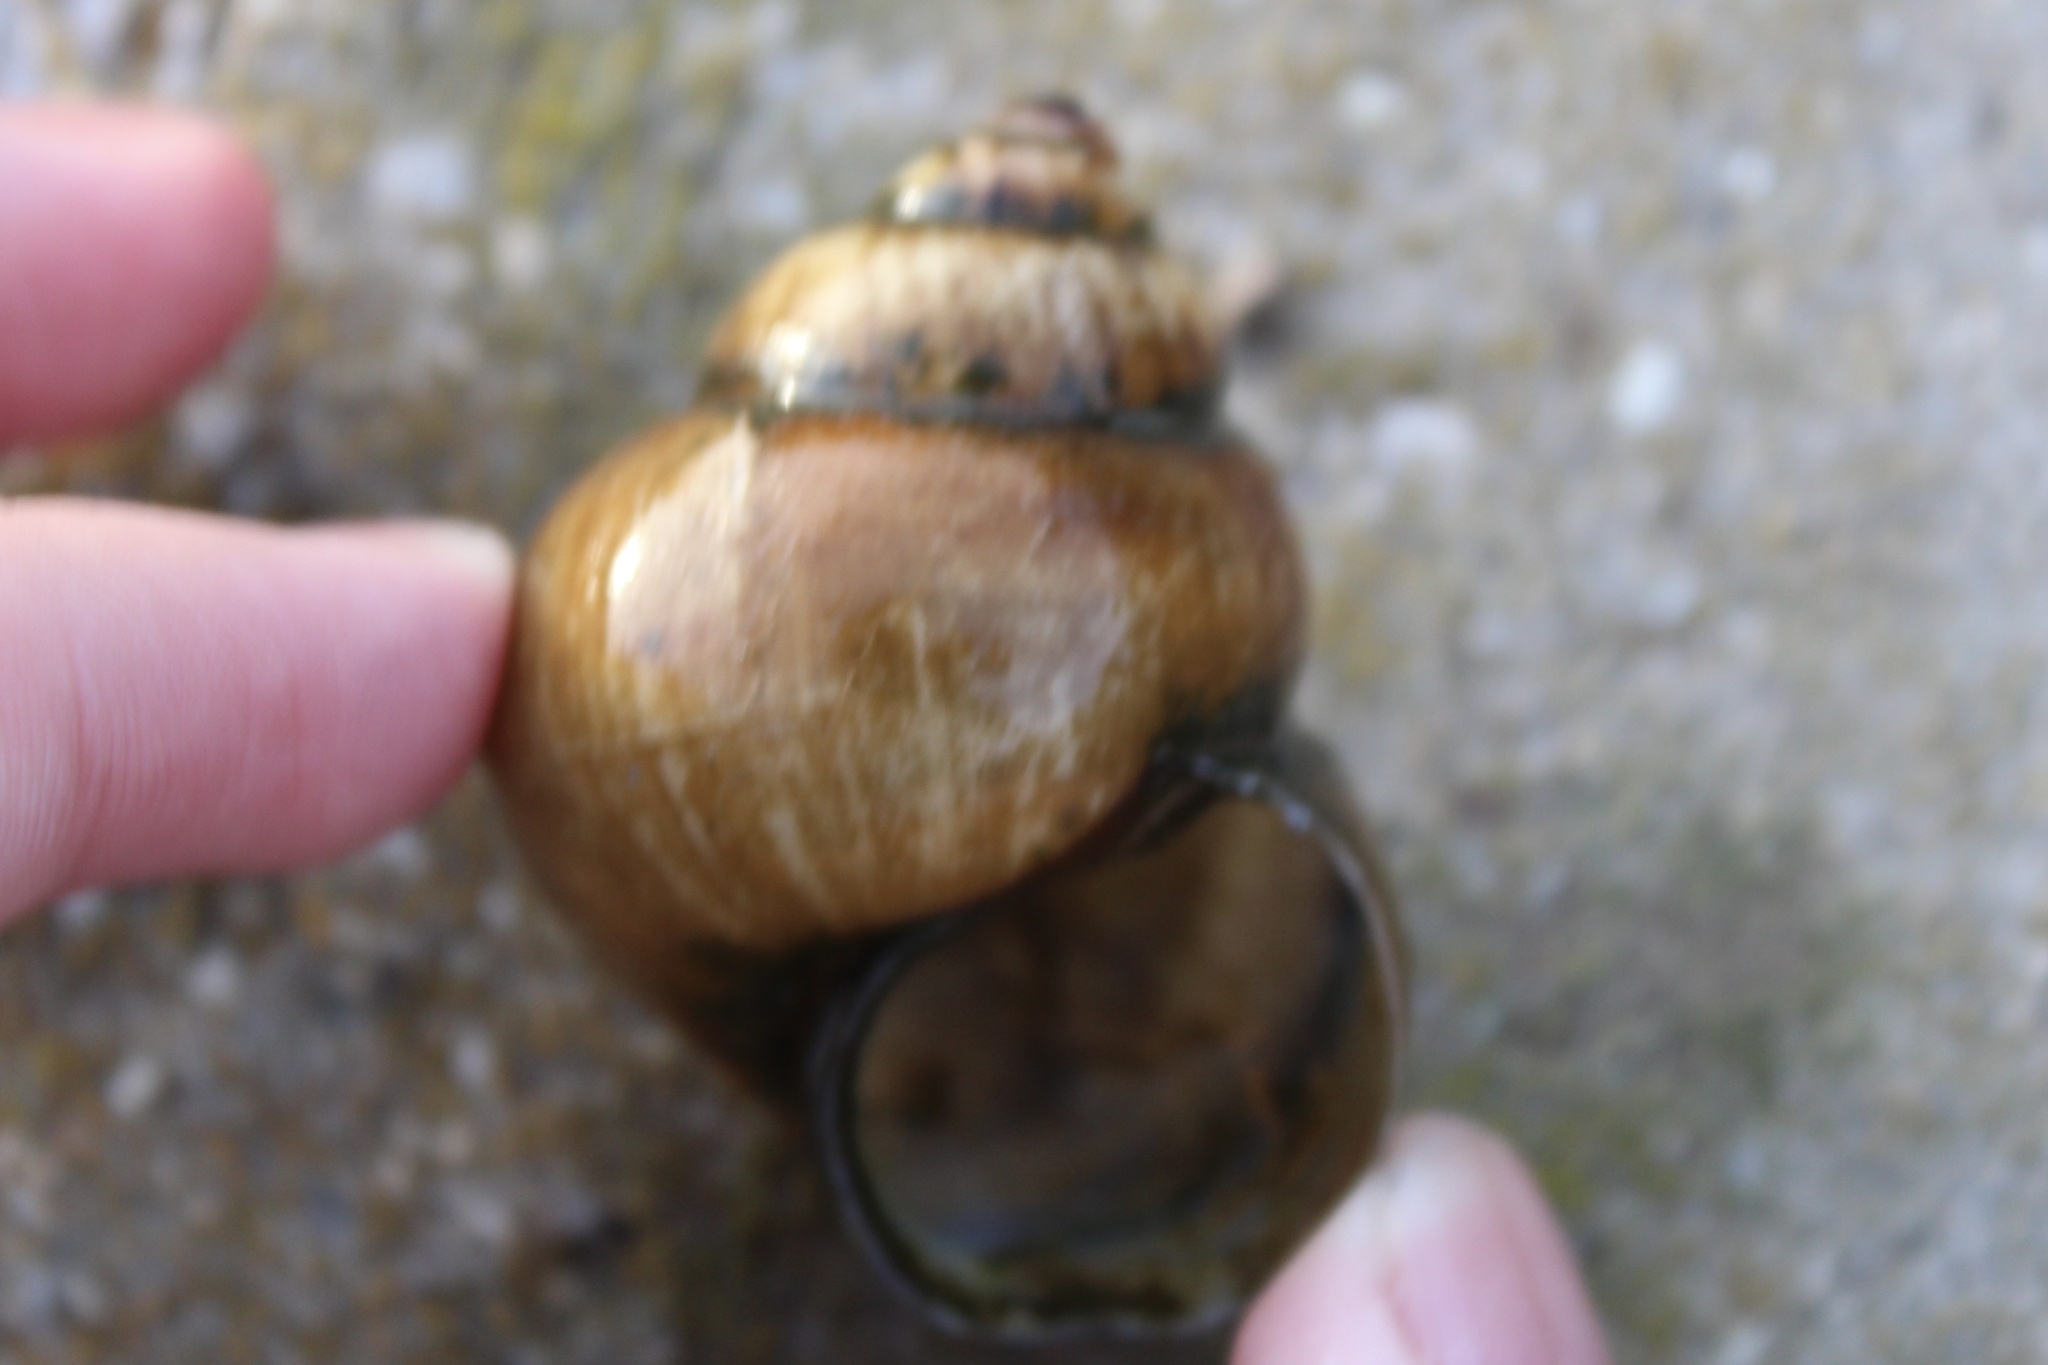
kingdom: Animalia
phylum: Mollusca
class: Gastropoda
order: Architaenioglossa
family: Viviparidae
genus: Cipangopaludina
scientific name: Cipangopaludina chinensis
